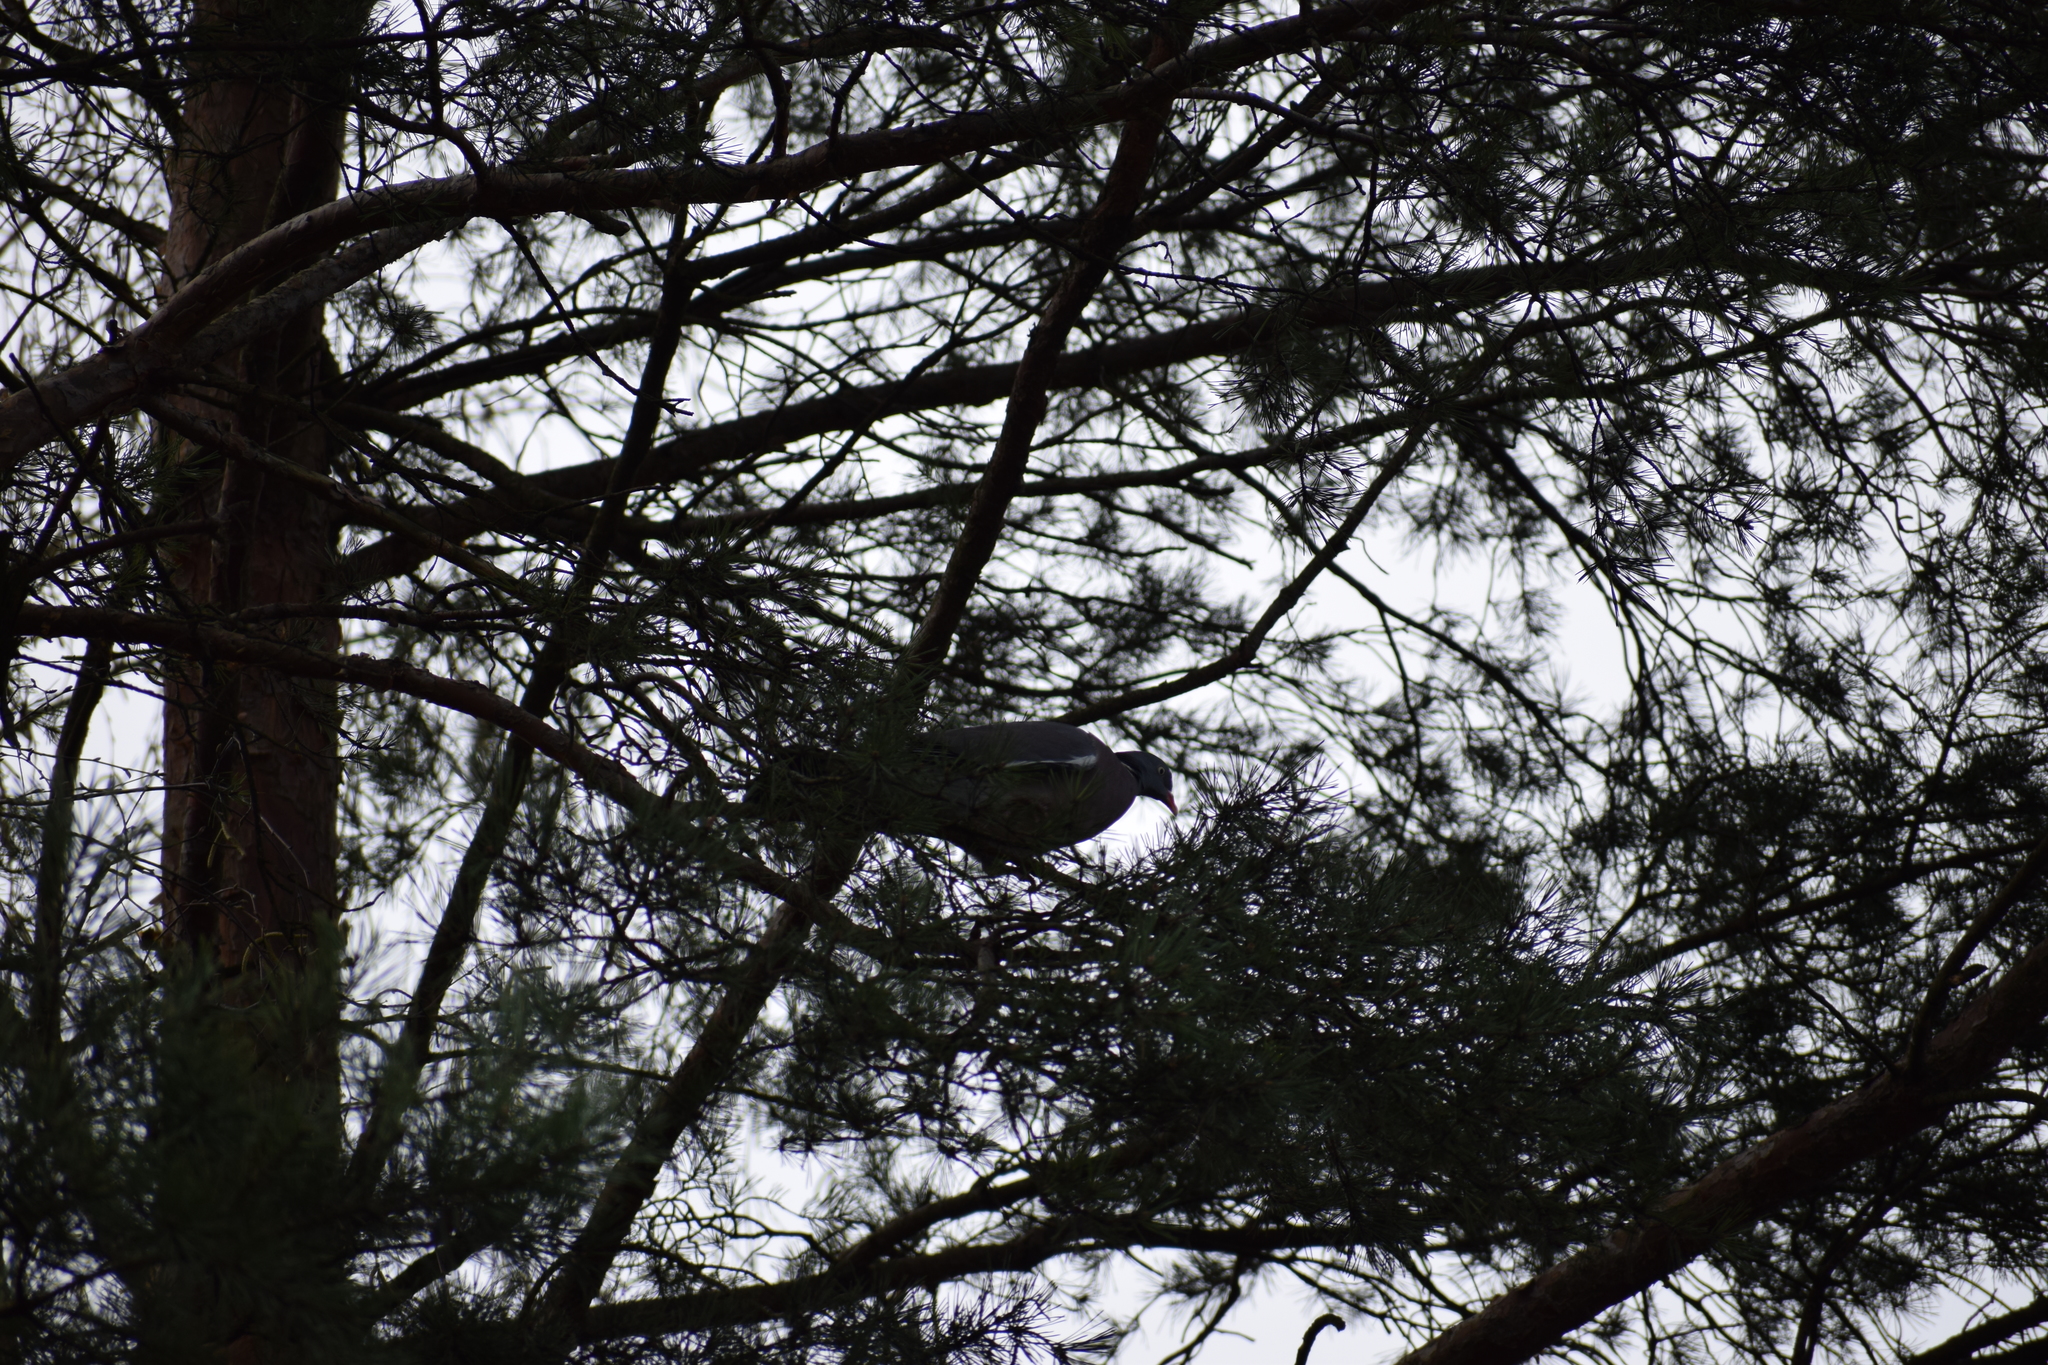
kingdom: Animalia
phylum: Chordata
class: Aves
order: Columbiformes
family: Columbidae
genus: Columba
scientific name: Columba palumbus
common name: Common wood pigeon
